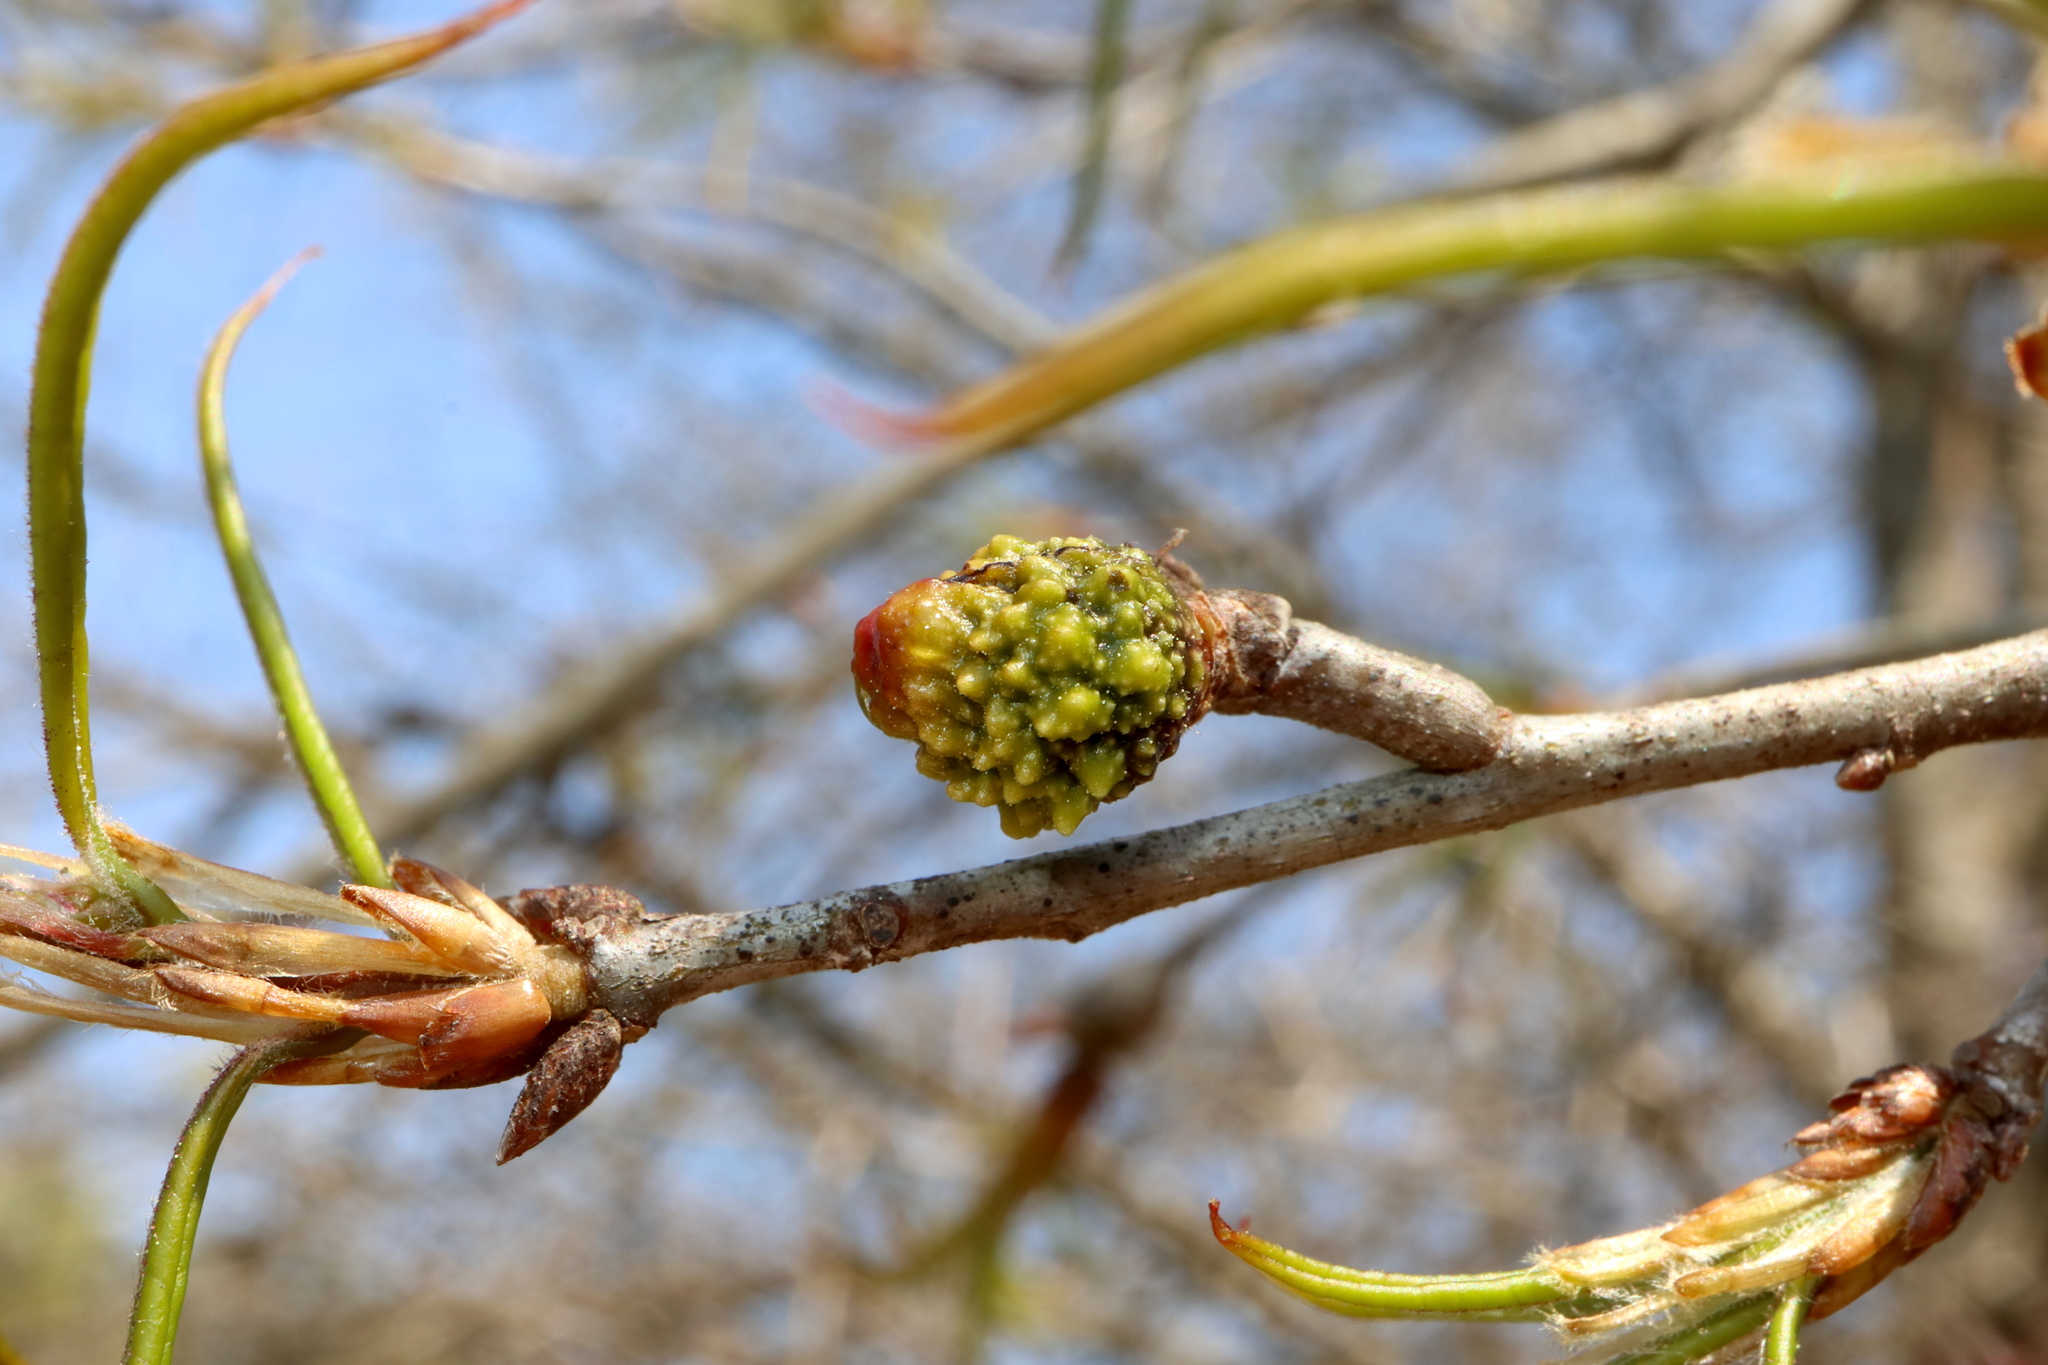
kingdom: Animalia
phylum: Arthropoda
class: Insecta
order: Hymenoptera
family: Cynipidae
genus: Callirhytis
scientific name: Callirhytis
